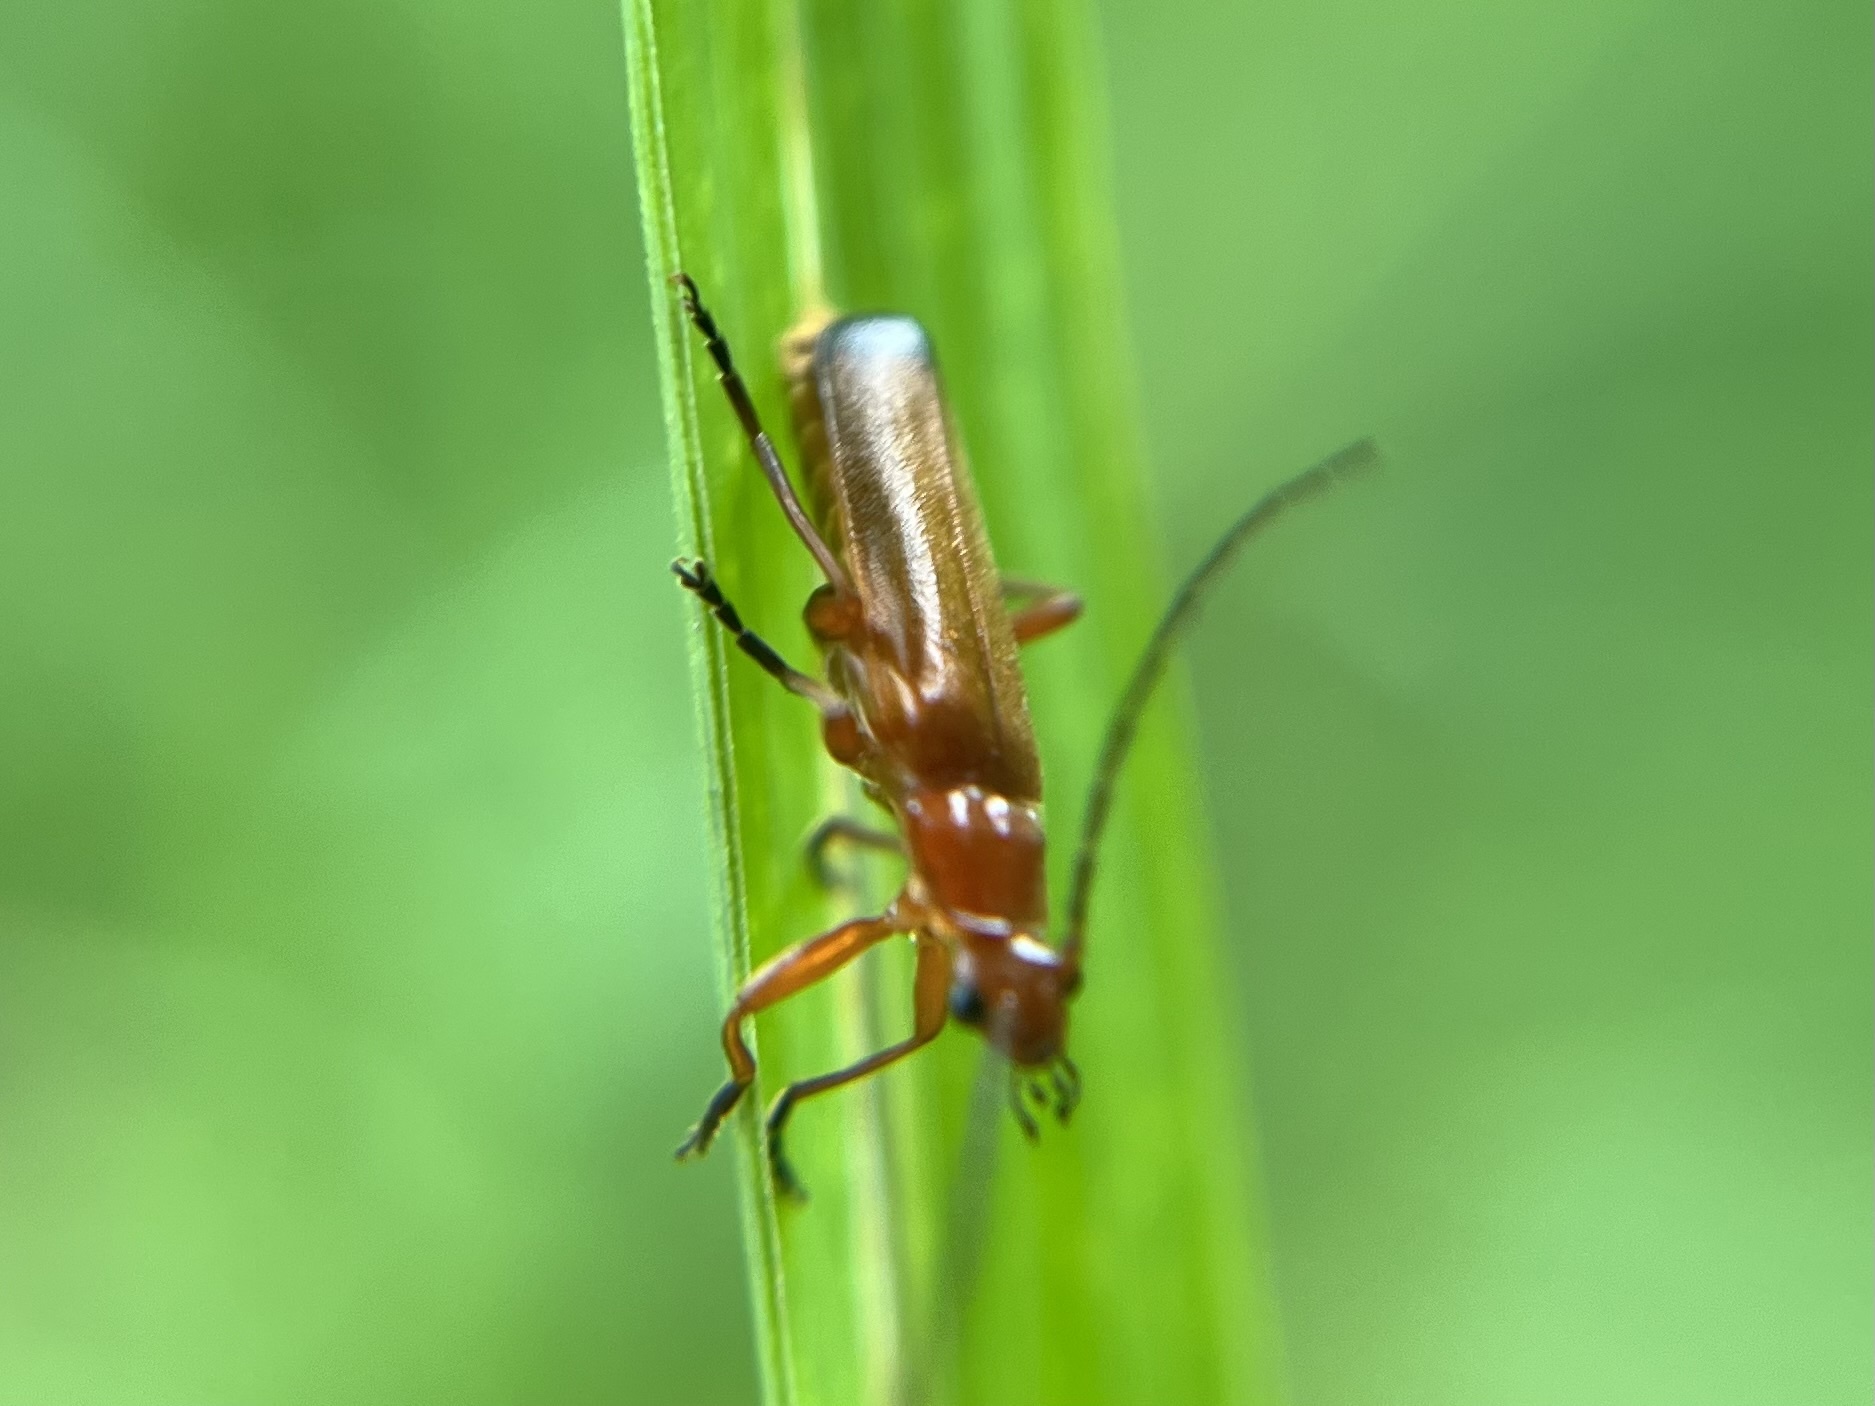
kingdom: Animalia
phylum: Arthropoda
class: Insecta
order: Coleoptera
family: Cantharidae
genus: Rhagonycha
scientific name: Rhagonycha fulva
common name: Common red soldier beetle
